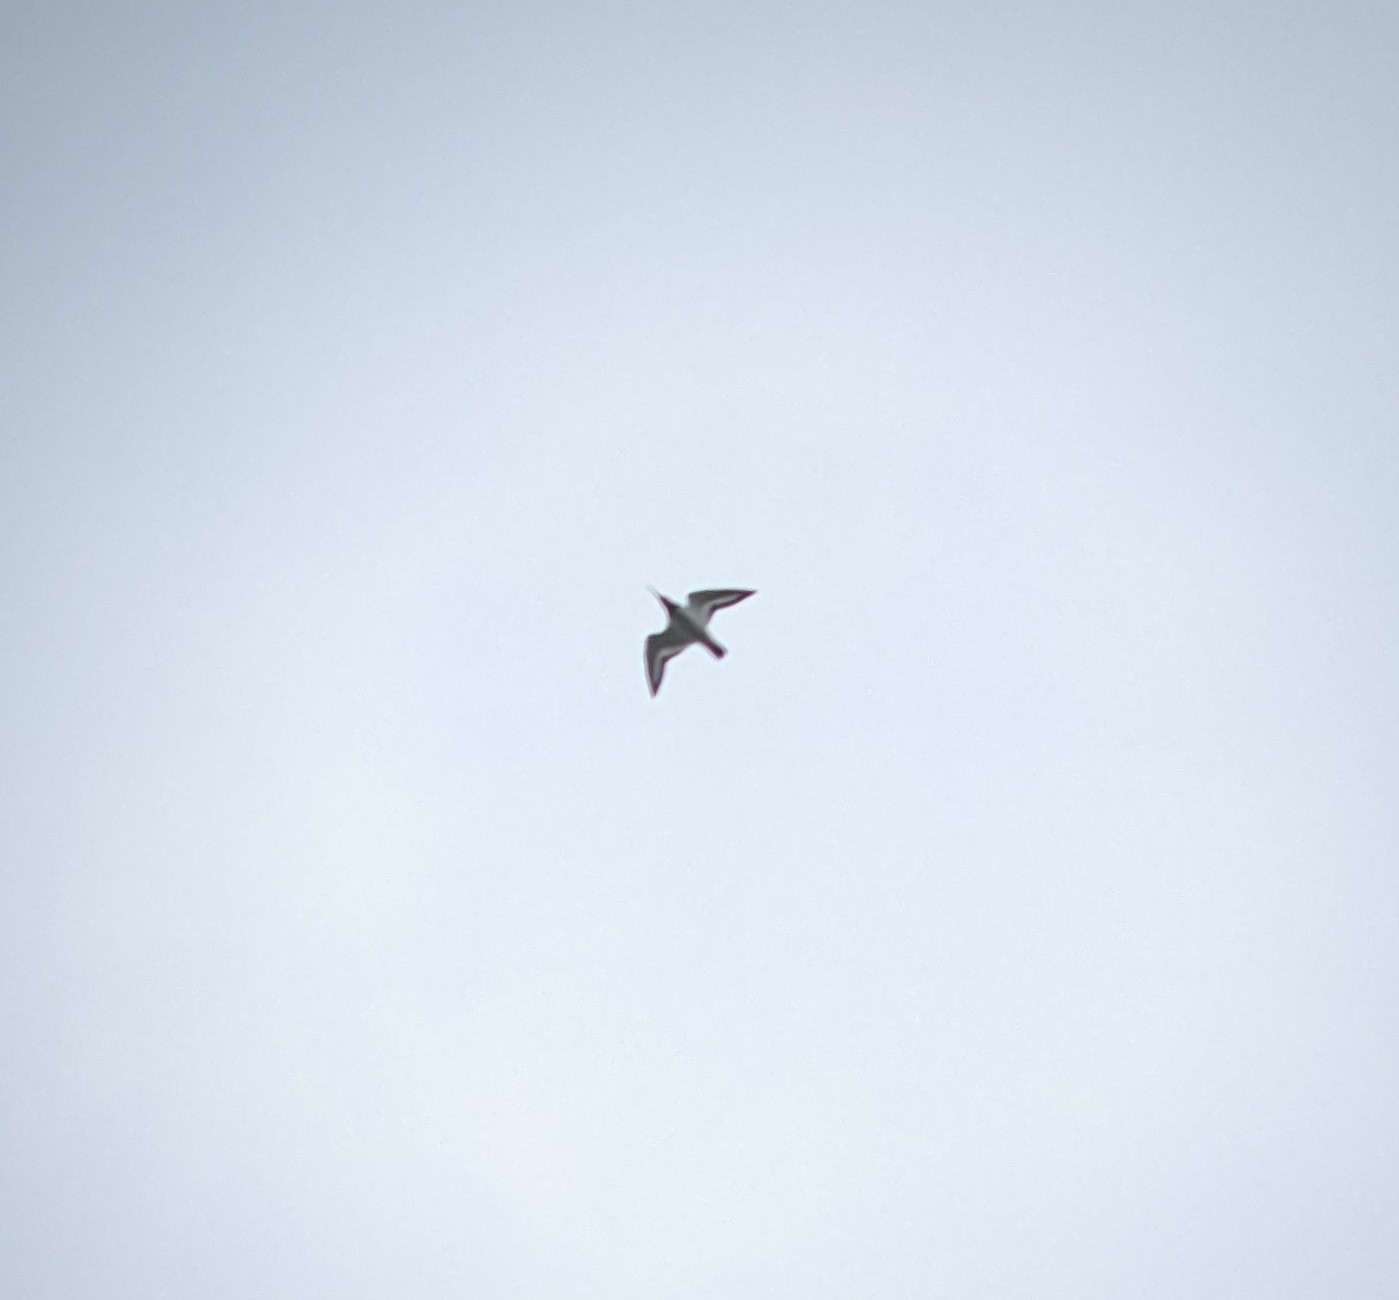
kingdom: Animalia
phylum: Chordata
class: Aves
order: Charadriiformes
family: Haematopodidae
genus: Haematopus
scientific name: Haematopus ostralegus
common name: Eurasian oystercatcher
